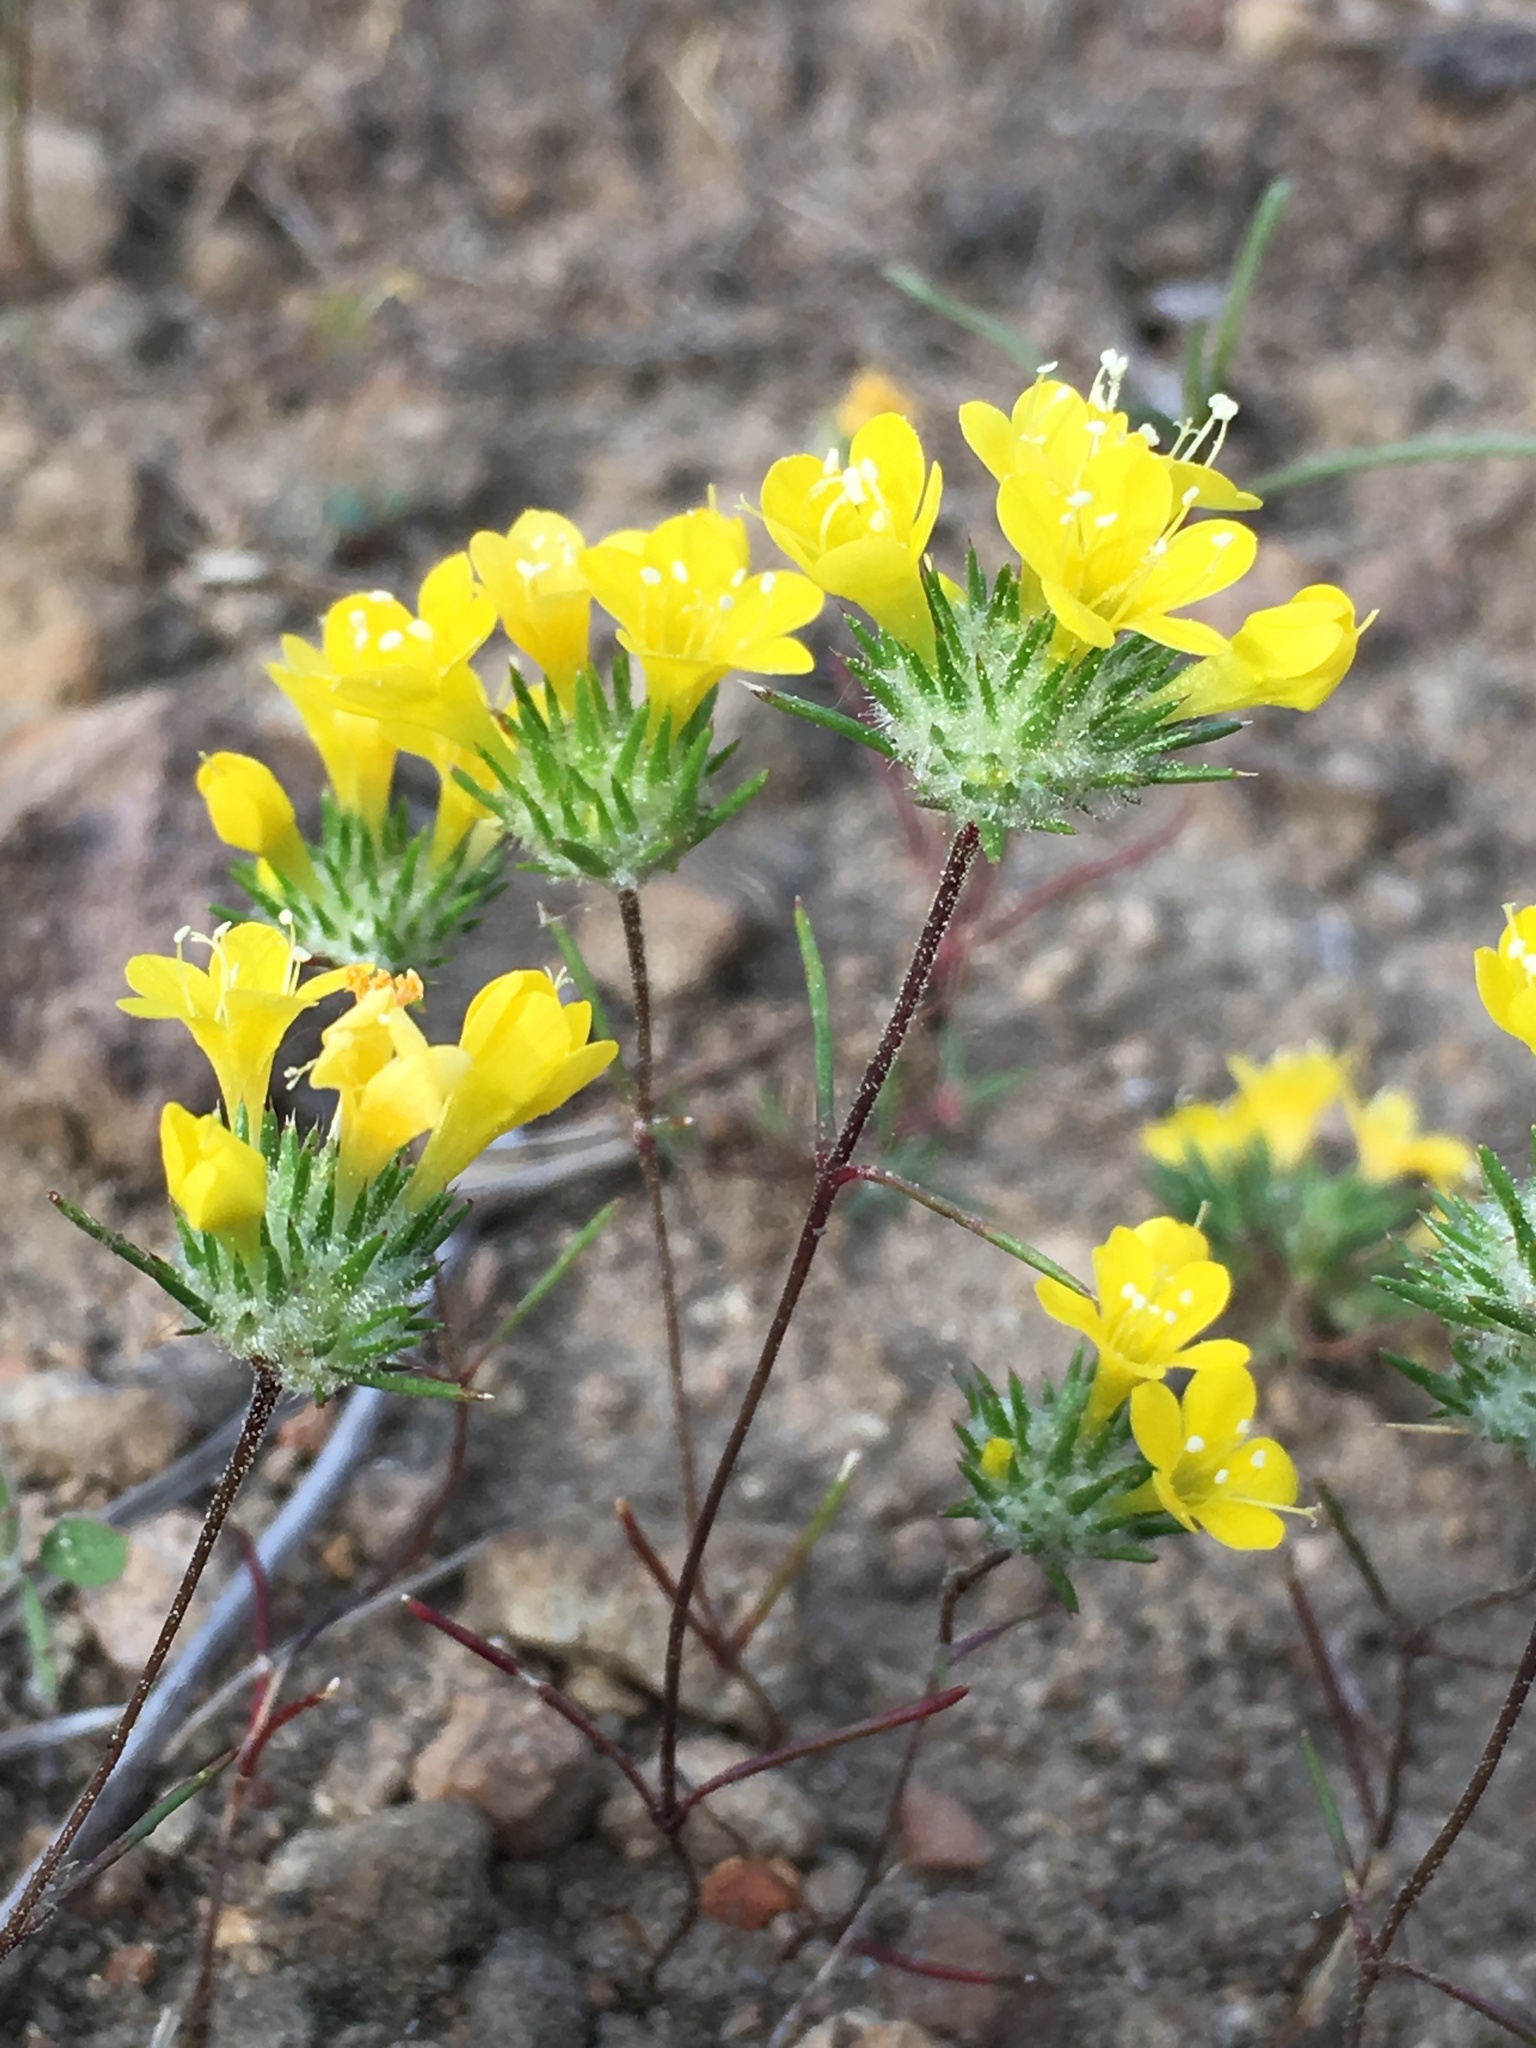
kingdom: Plantae
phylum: Tracheophyta
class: Magnoliopsida
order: Ericales
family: Polemoniaceae
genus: Navarretia
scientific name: Navarretia prolifera
